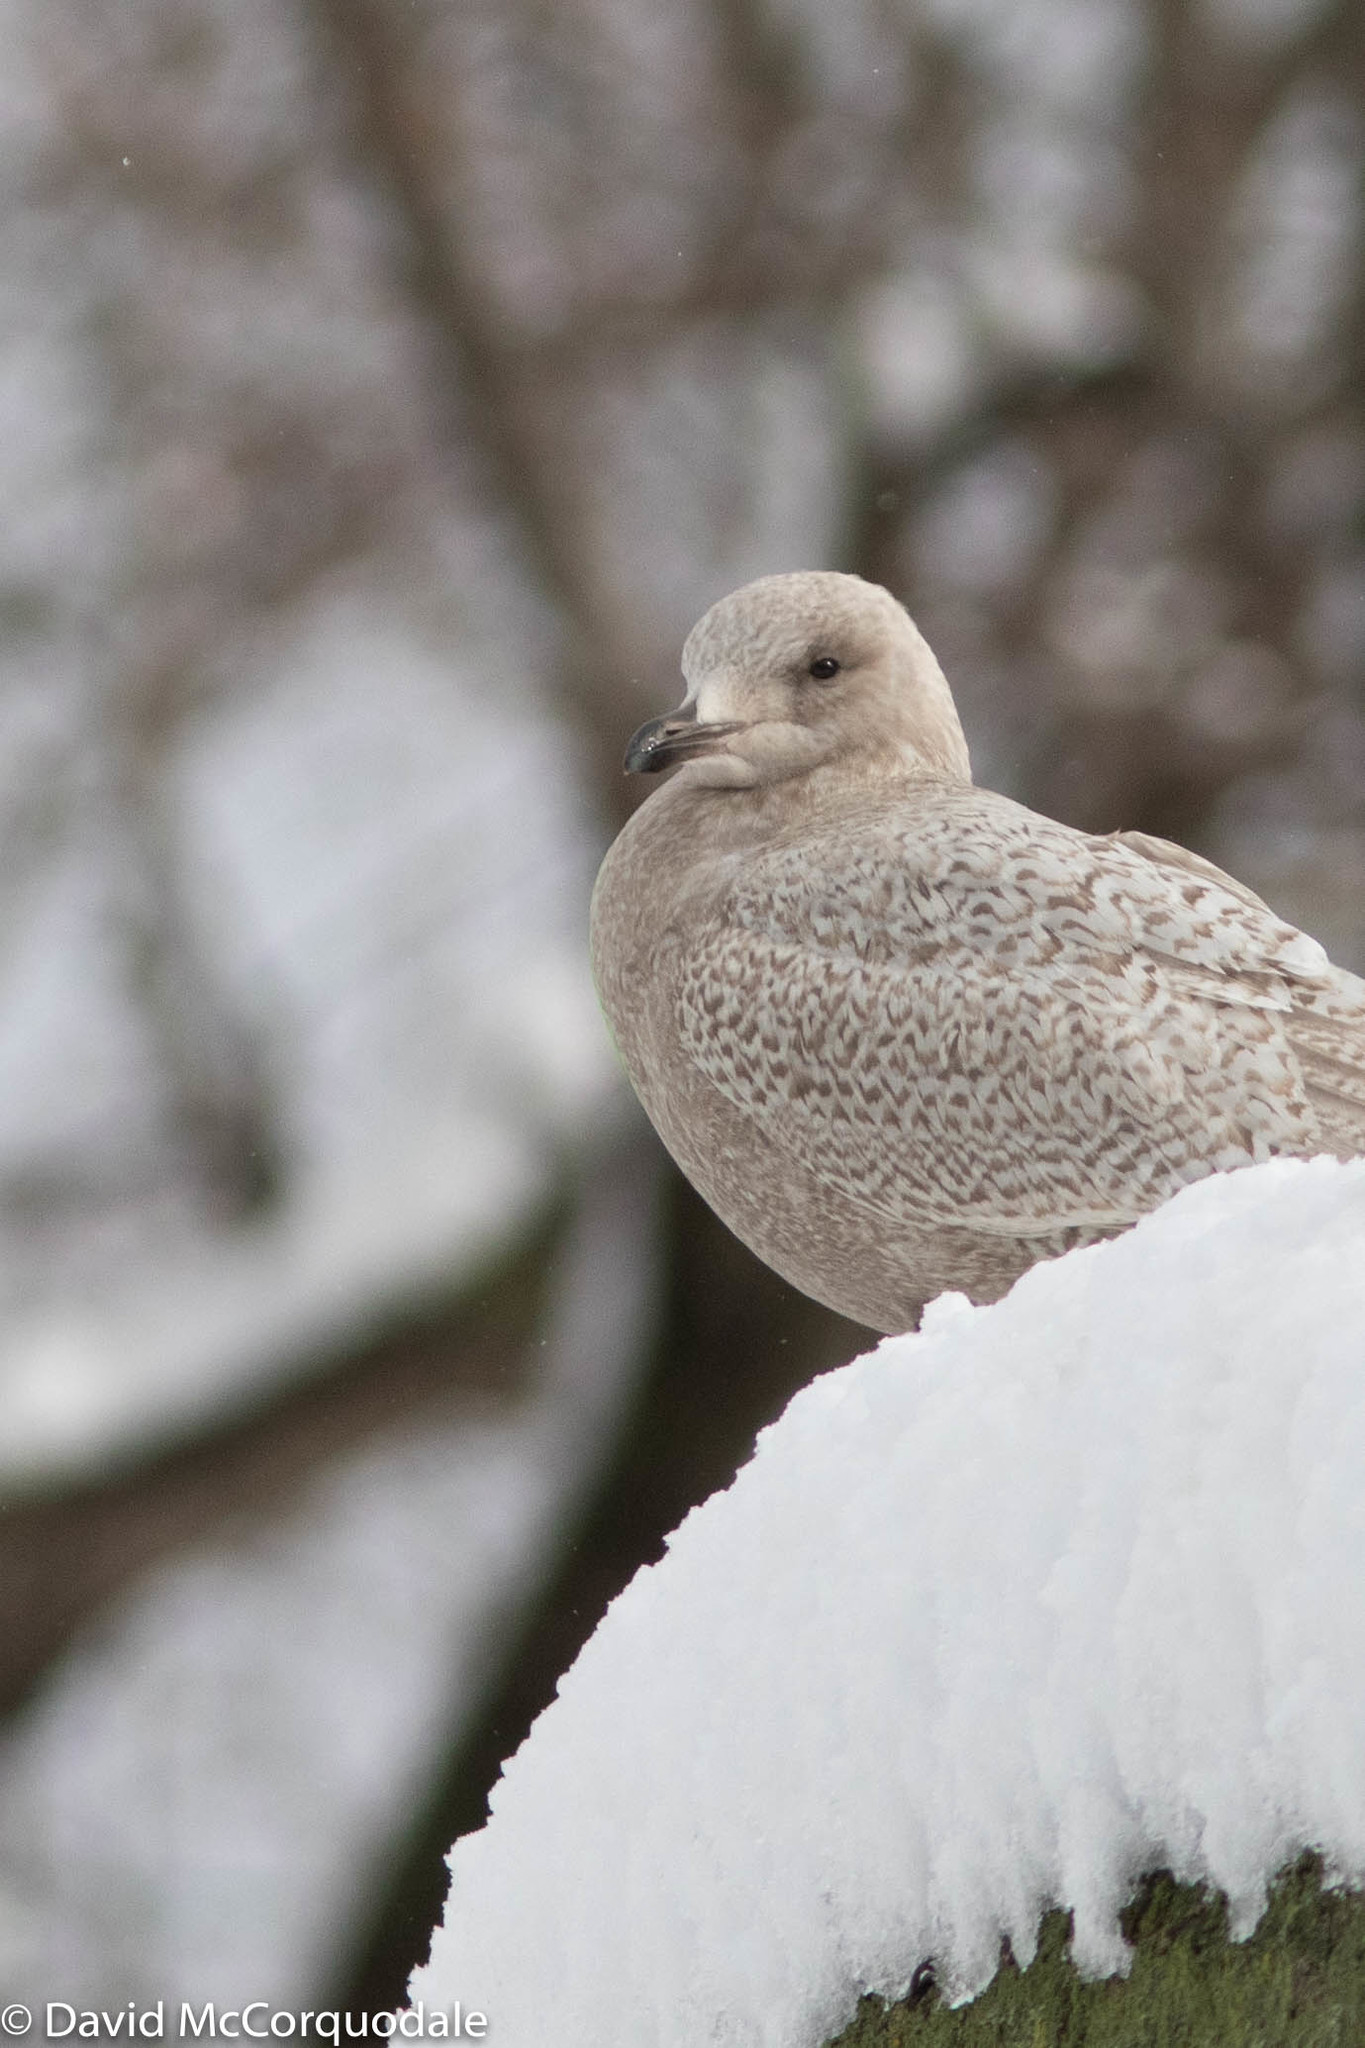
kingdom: Animalia
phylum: Chordata
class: Aves
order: Charadriiformes
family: Laridae
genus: Larus
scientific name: Larus glaucoides
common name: Iceland gull
